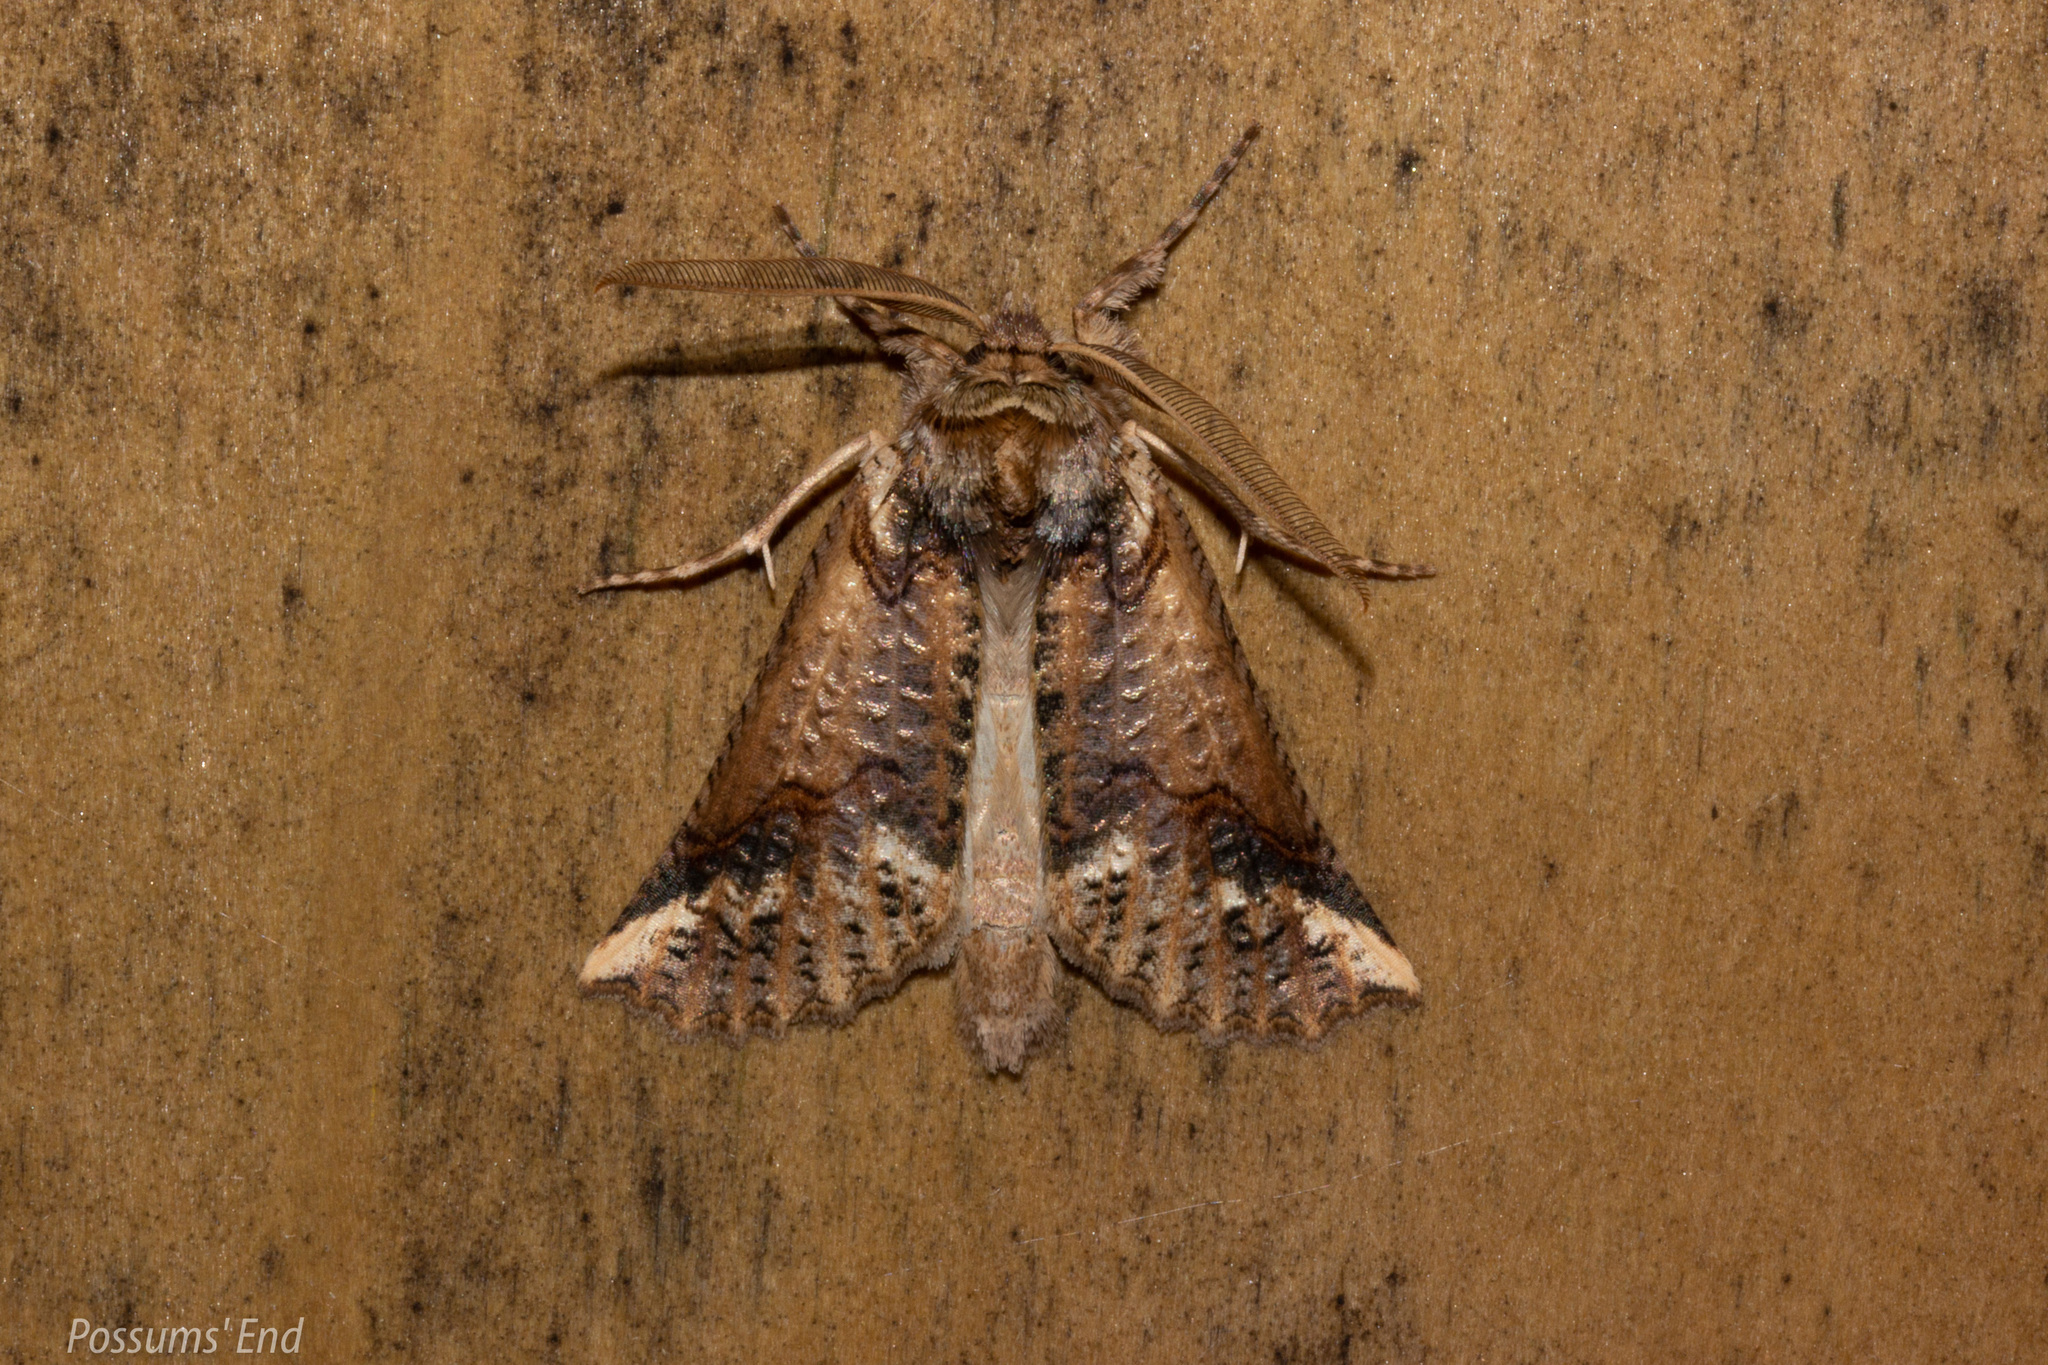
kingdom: Animalia
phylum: Arthropoda
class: Insecta
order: Lepidoptera
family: Geometridae
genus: Declana
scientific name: Declana
